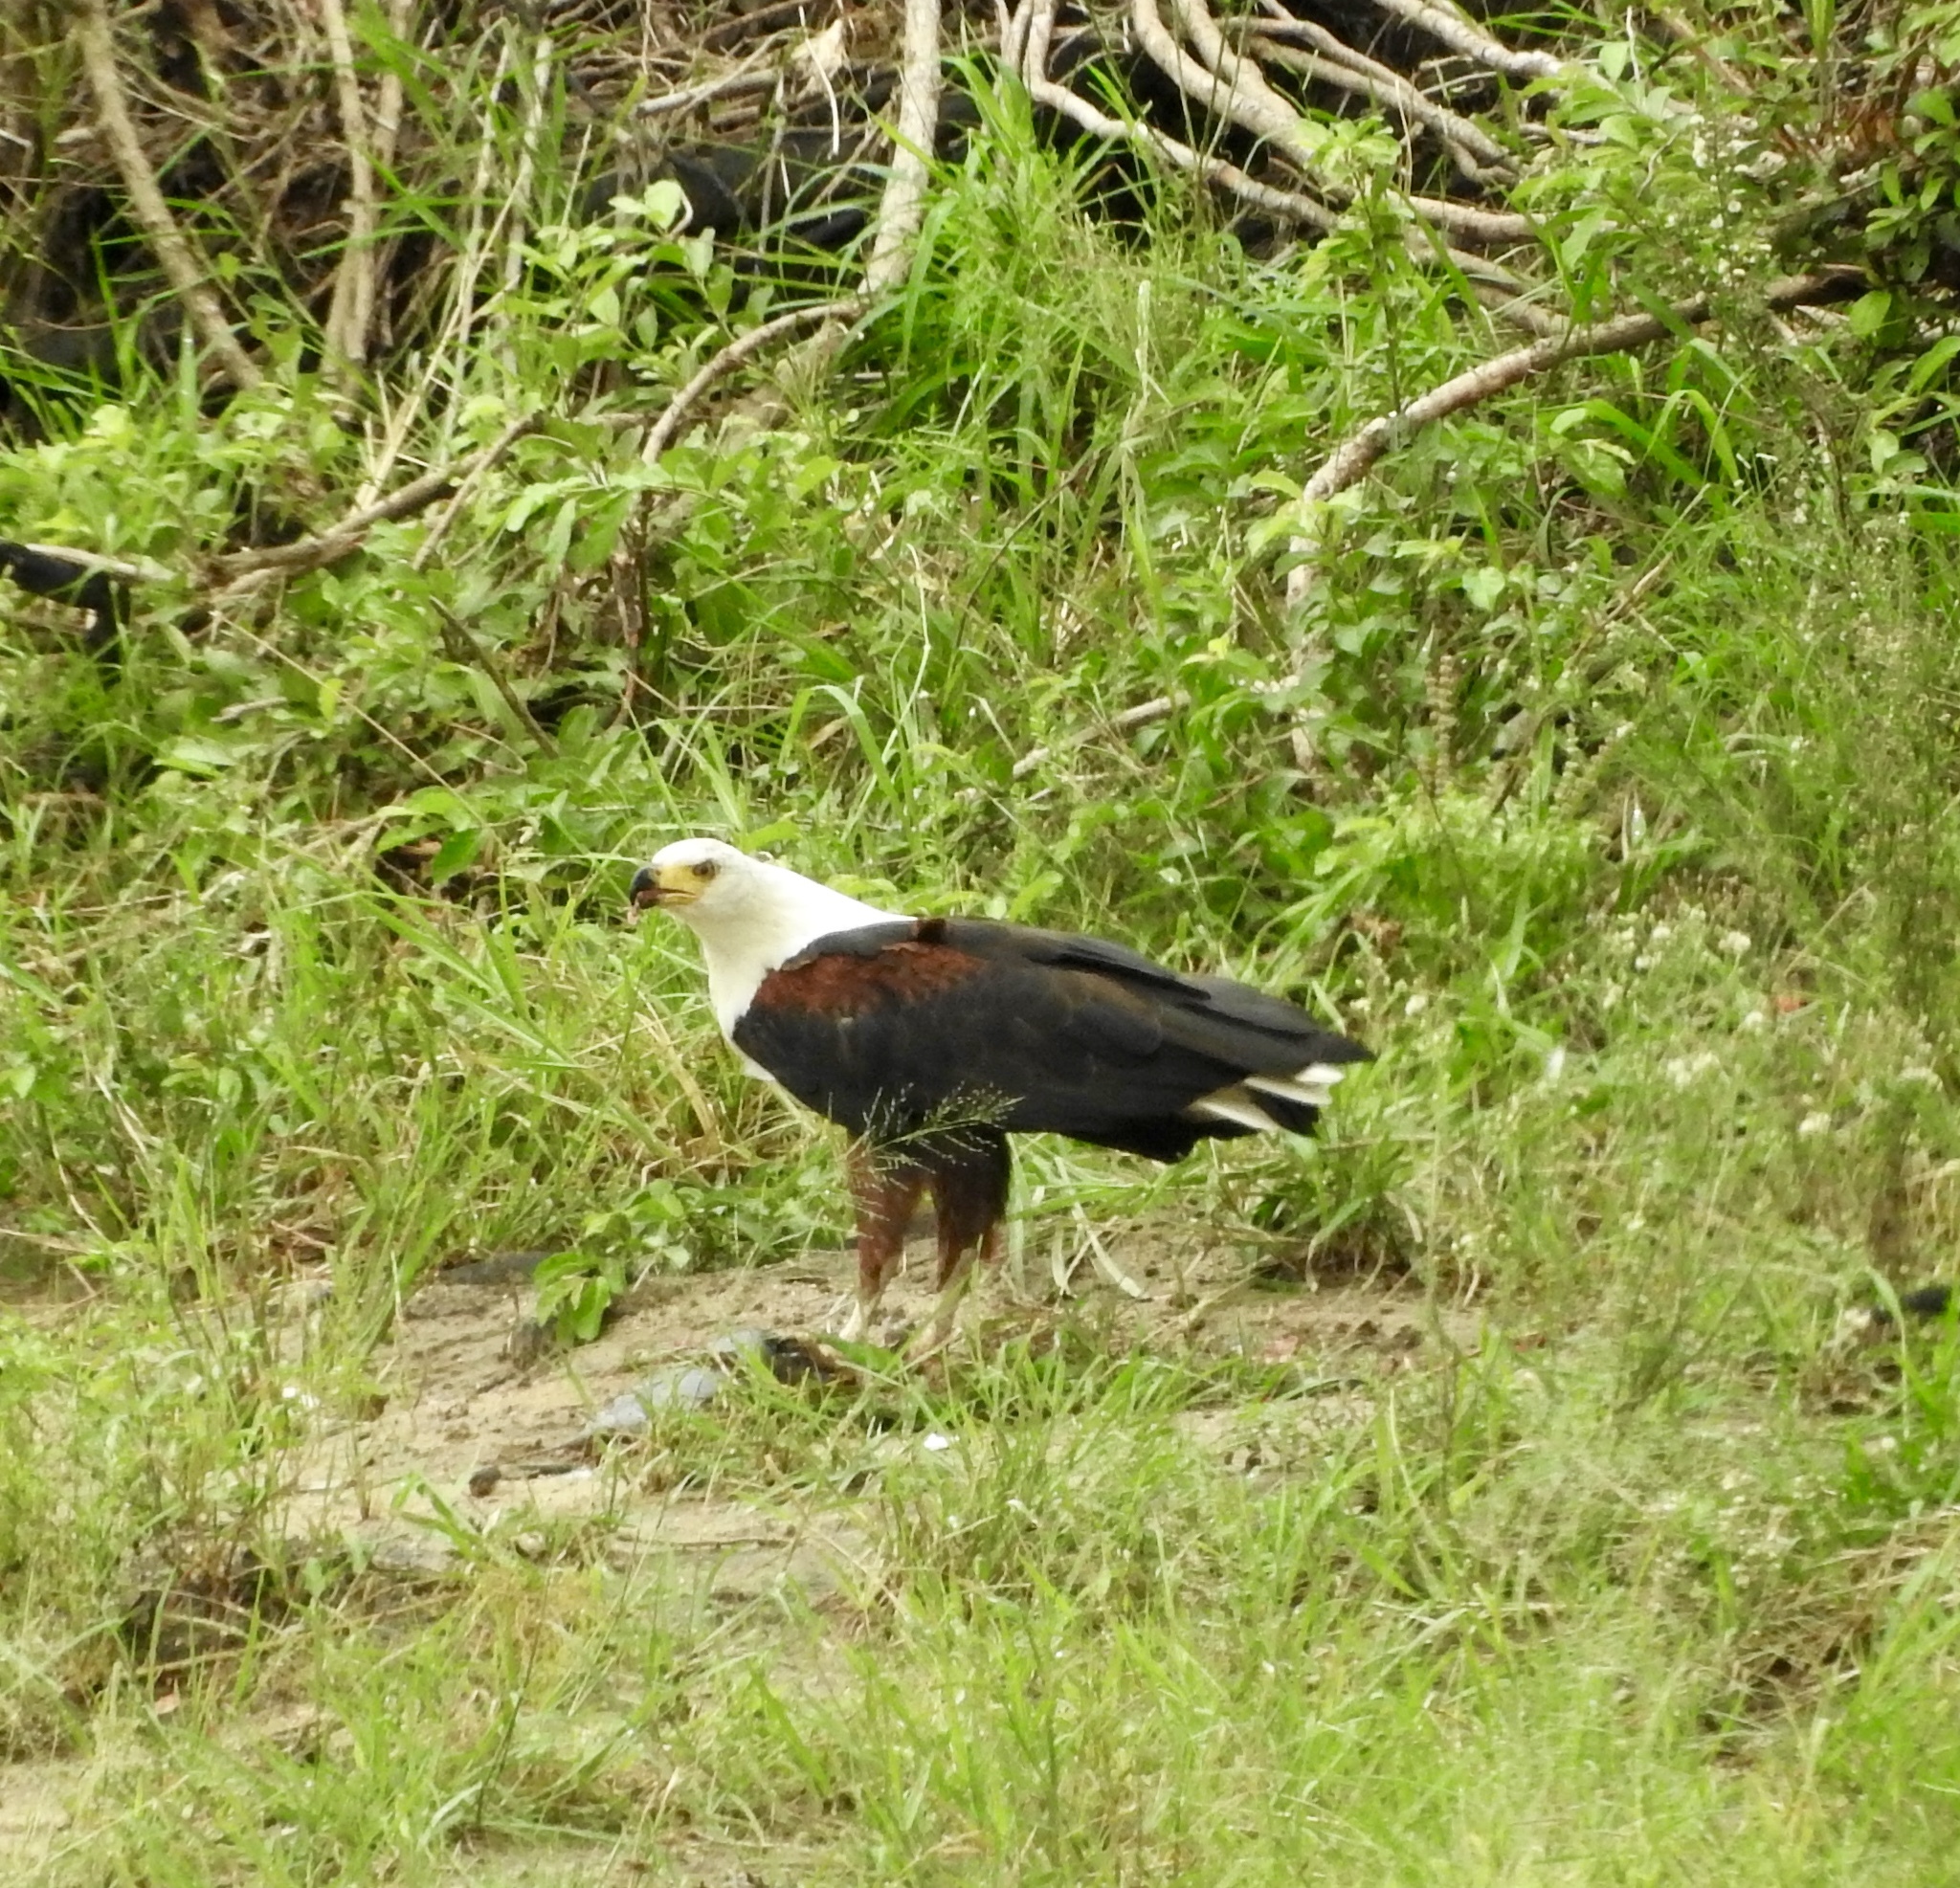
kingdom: Animalia
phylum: Chordata
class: Aves
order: Accipitriformes
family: Accipitridae
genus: Haliaeetus
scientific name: Haliaeetus vocifer
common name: African fish eagle
